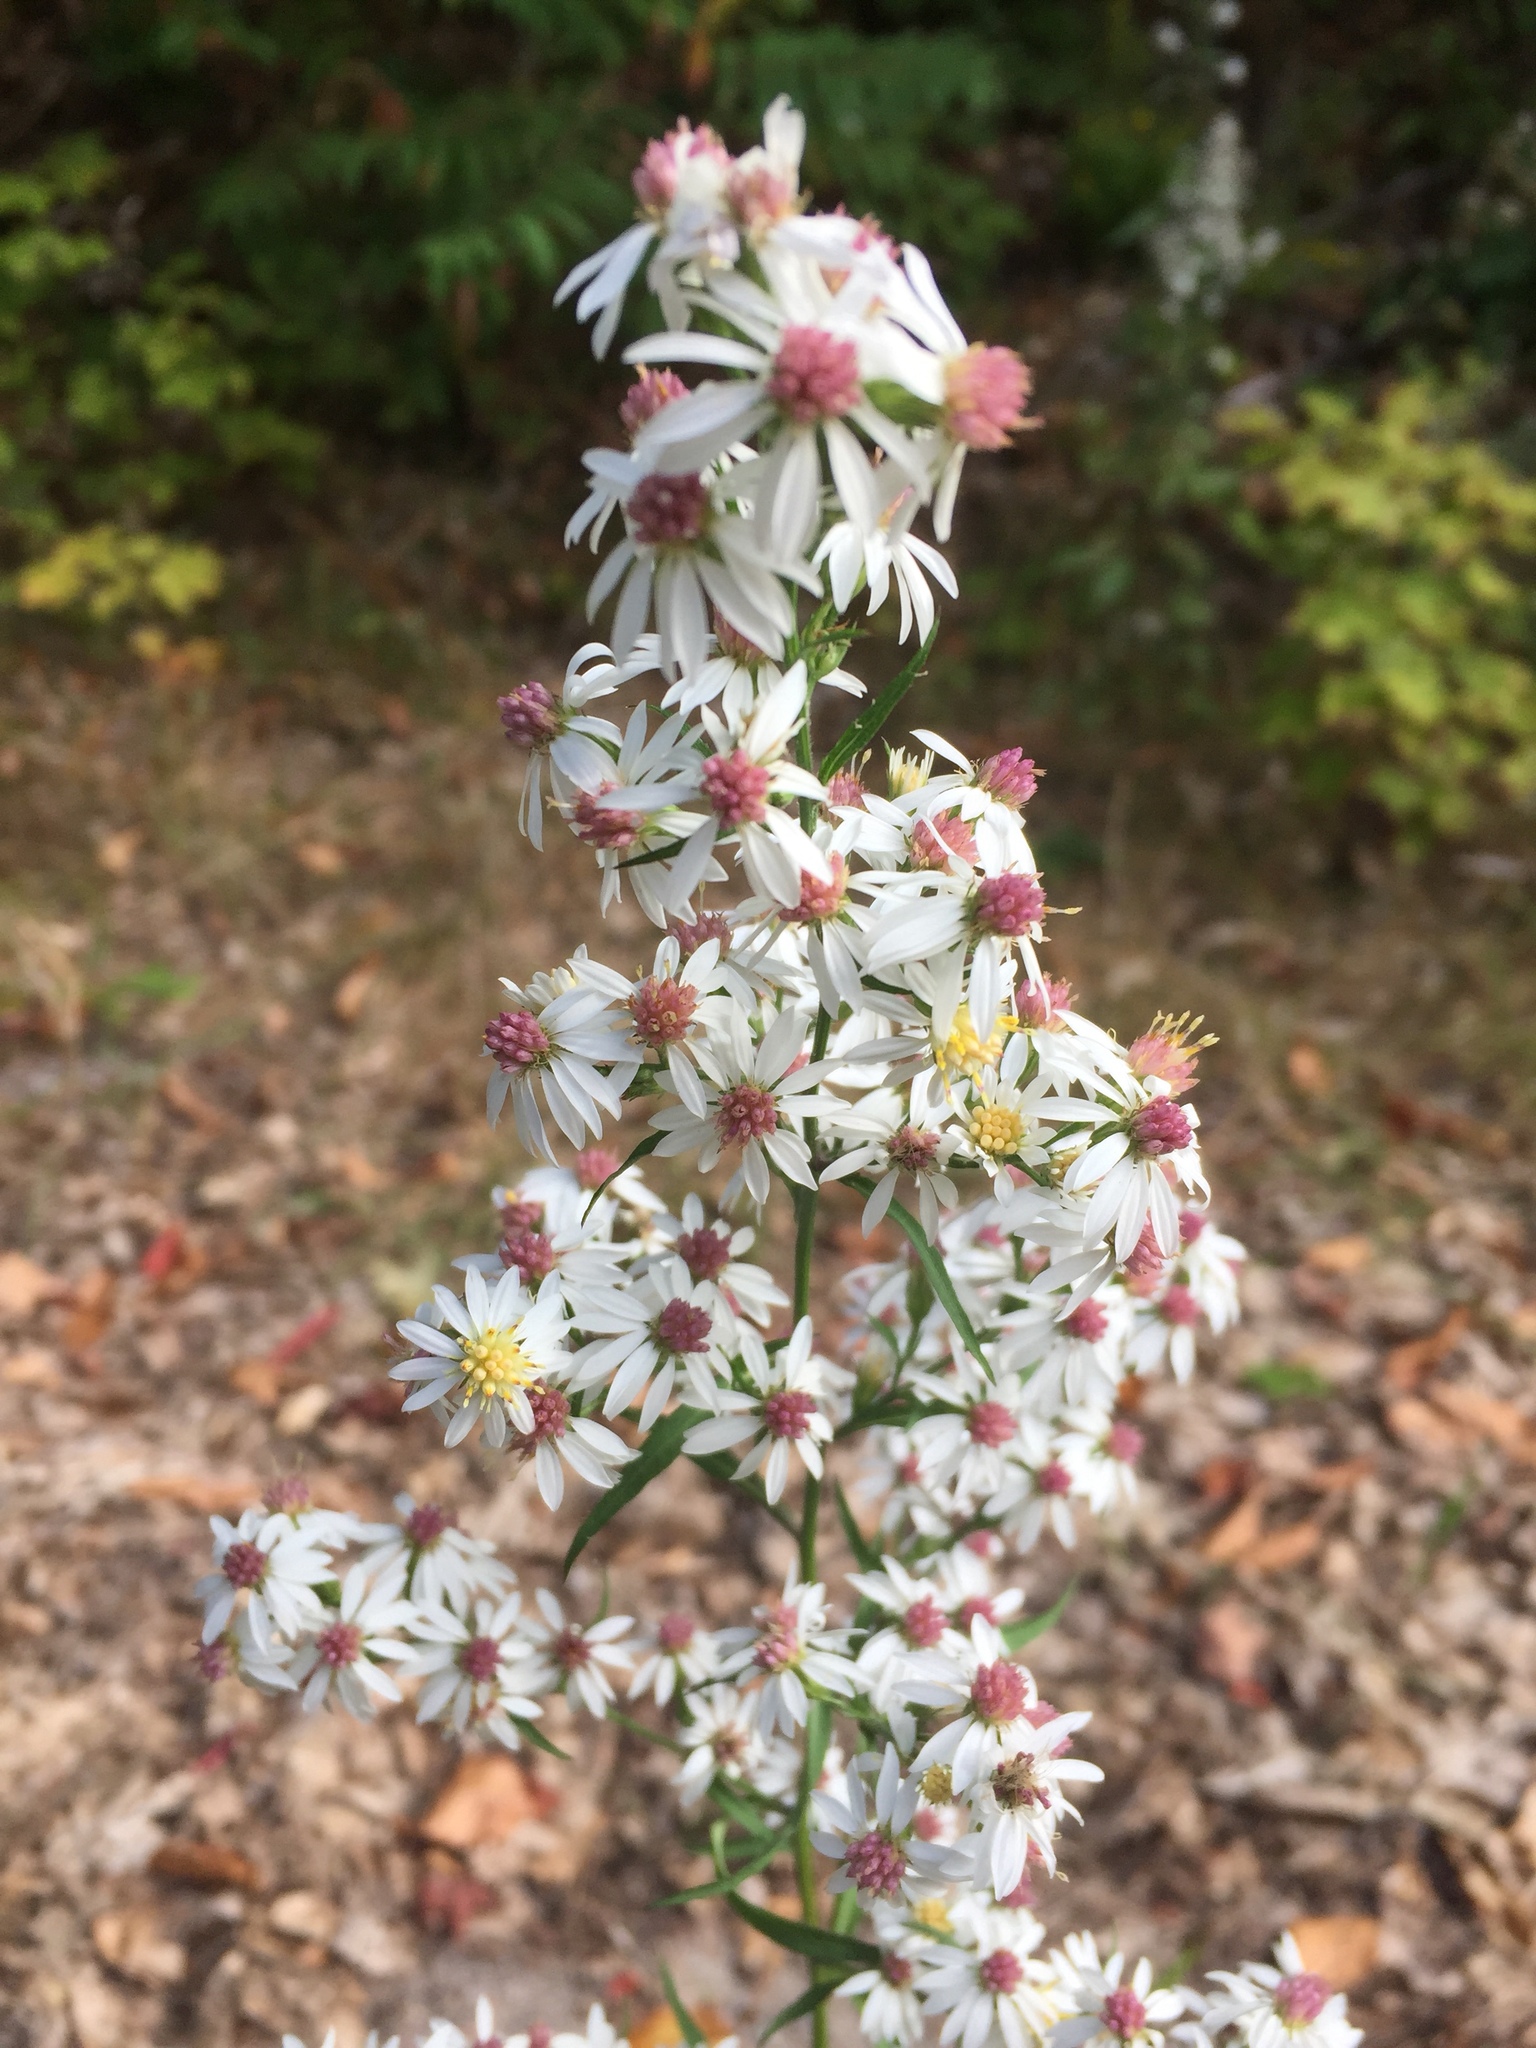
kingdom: Plantae
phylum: Tracheophyta
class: Magnoliopsida
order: Asterales
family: Asteraceae
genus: Symphyotrichum
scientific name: Symphyotrichum urophyllum
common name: Arrow-leaved aster
